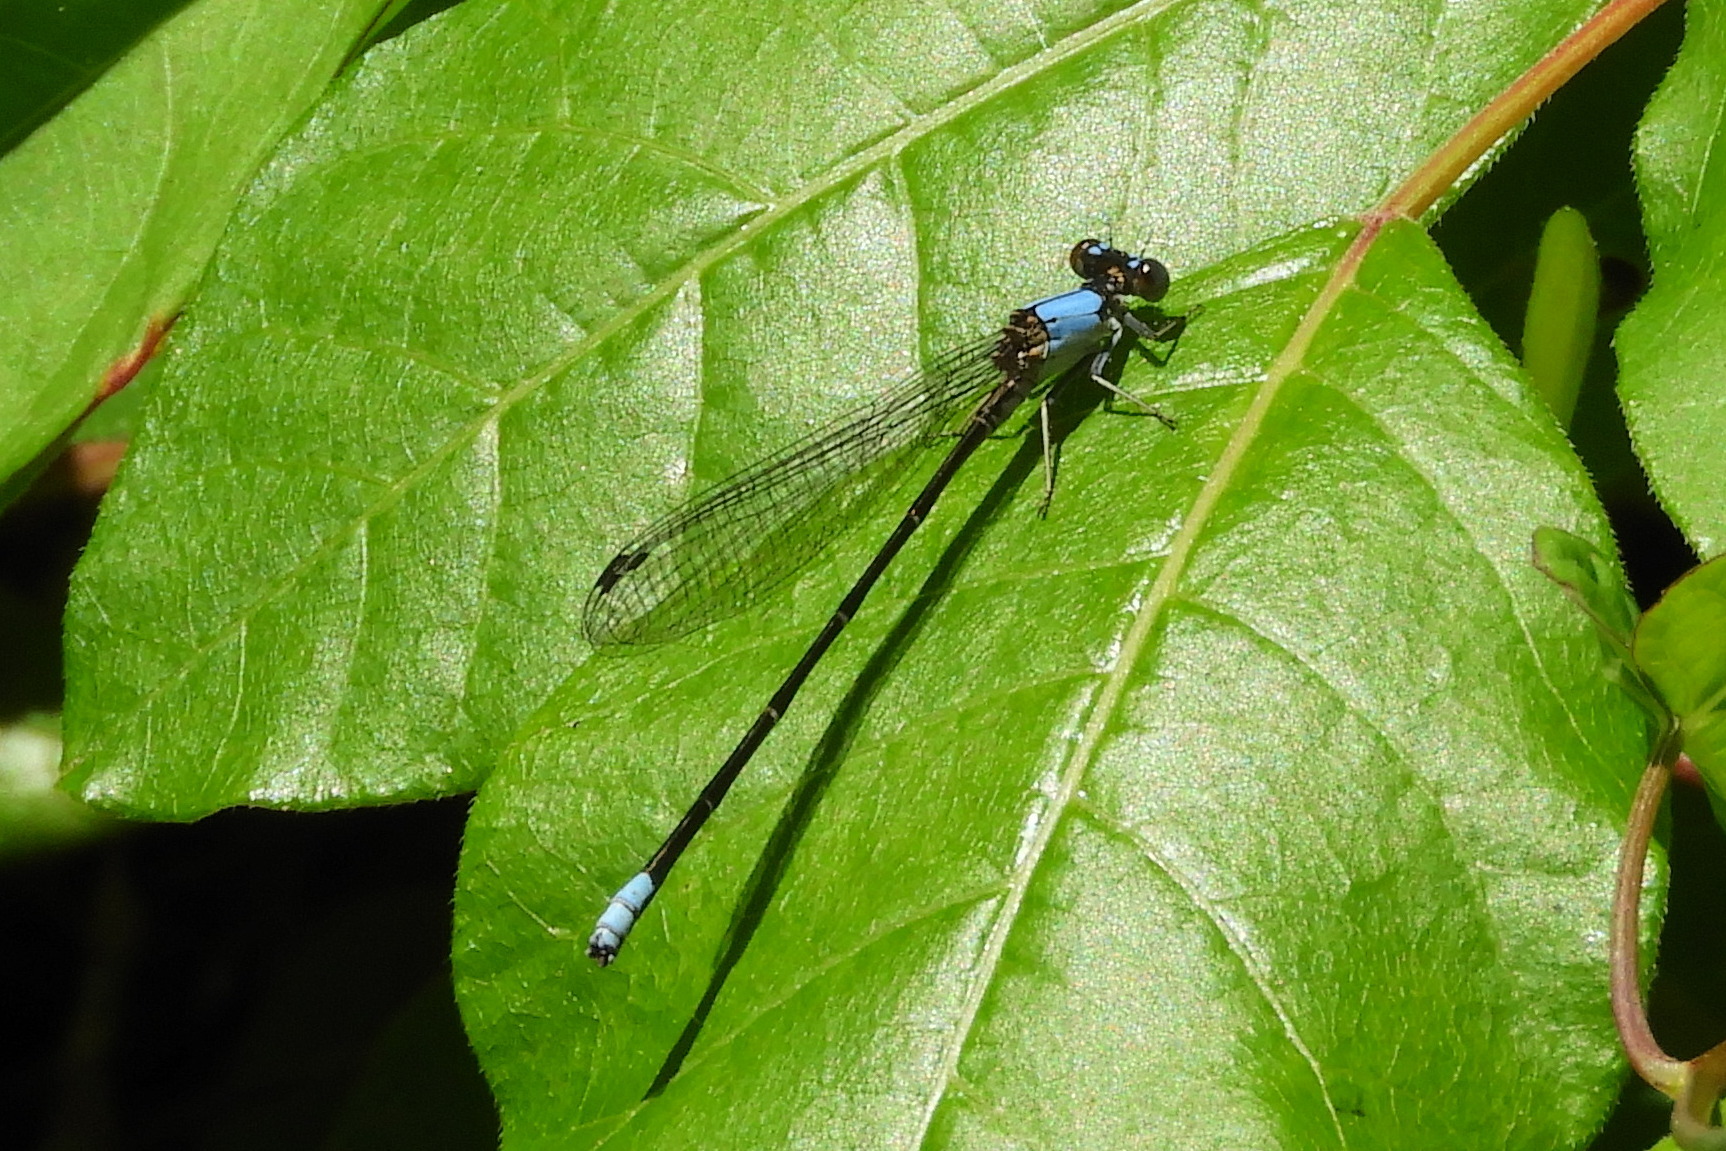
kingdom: Animalia
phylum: Arthropoda
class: Insecta
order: Odonata
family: Coenagrionidae
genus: Argia
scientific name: Argia apicalis
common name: Blue-fronted dancer
